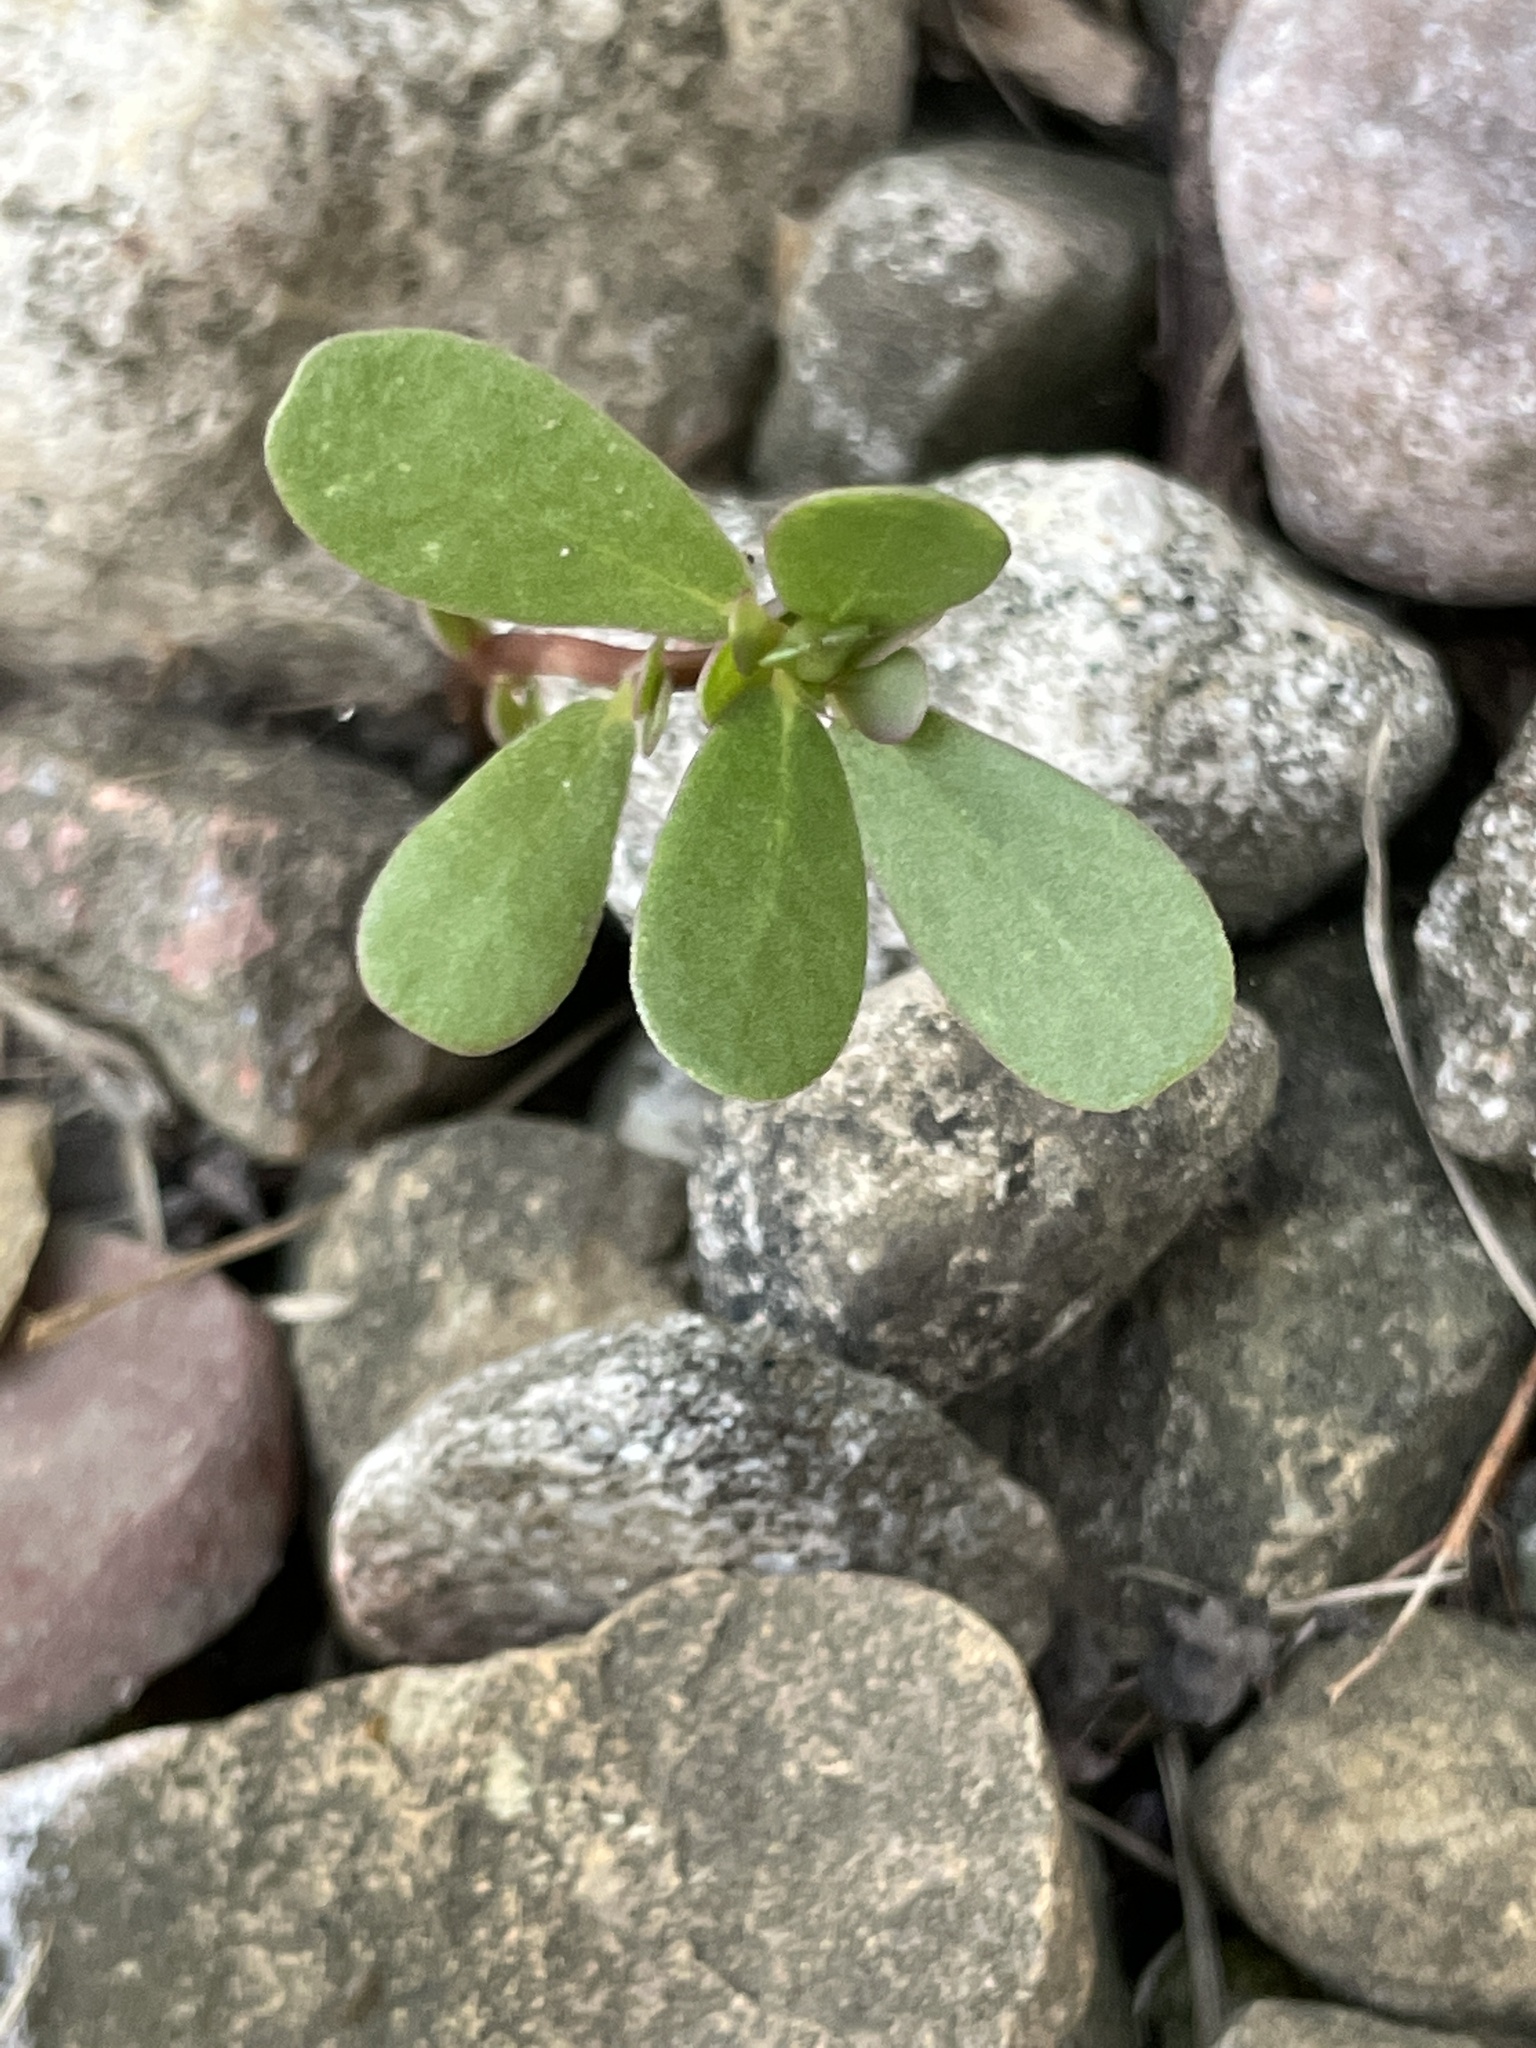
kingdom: Plantae
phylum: Tracheophyta
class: Magnoliopsida
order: Caryophyllales
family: Portulacaceae
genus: Portulaca
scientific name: Portulaca oleracea
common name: Common purslane
